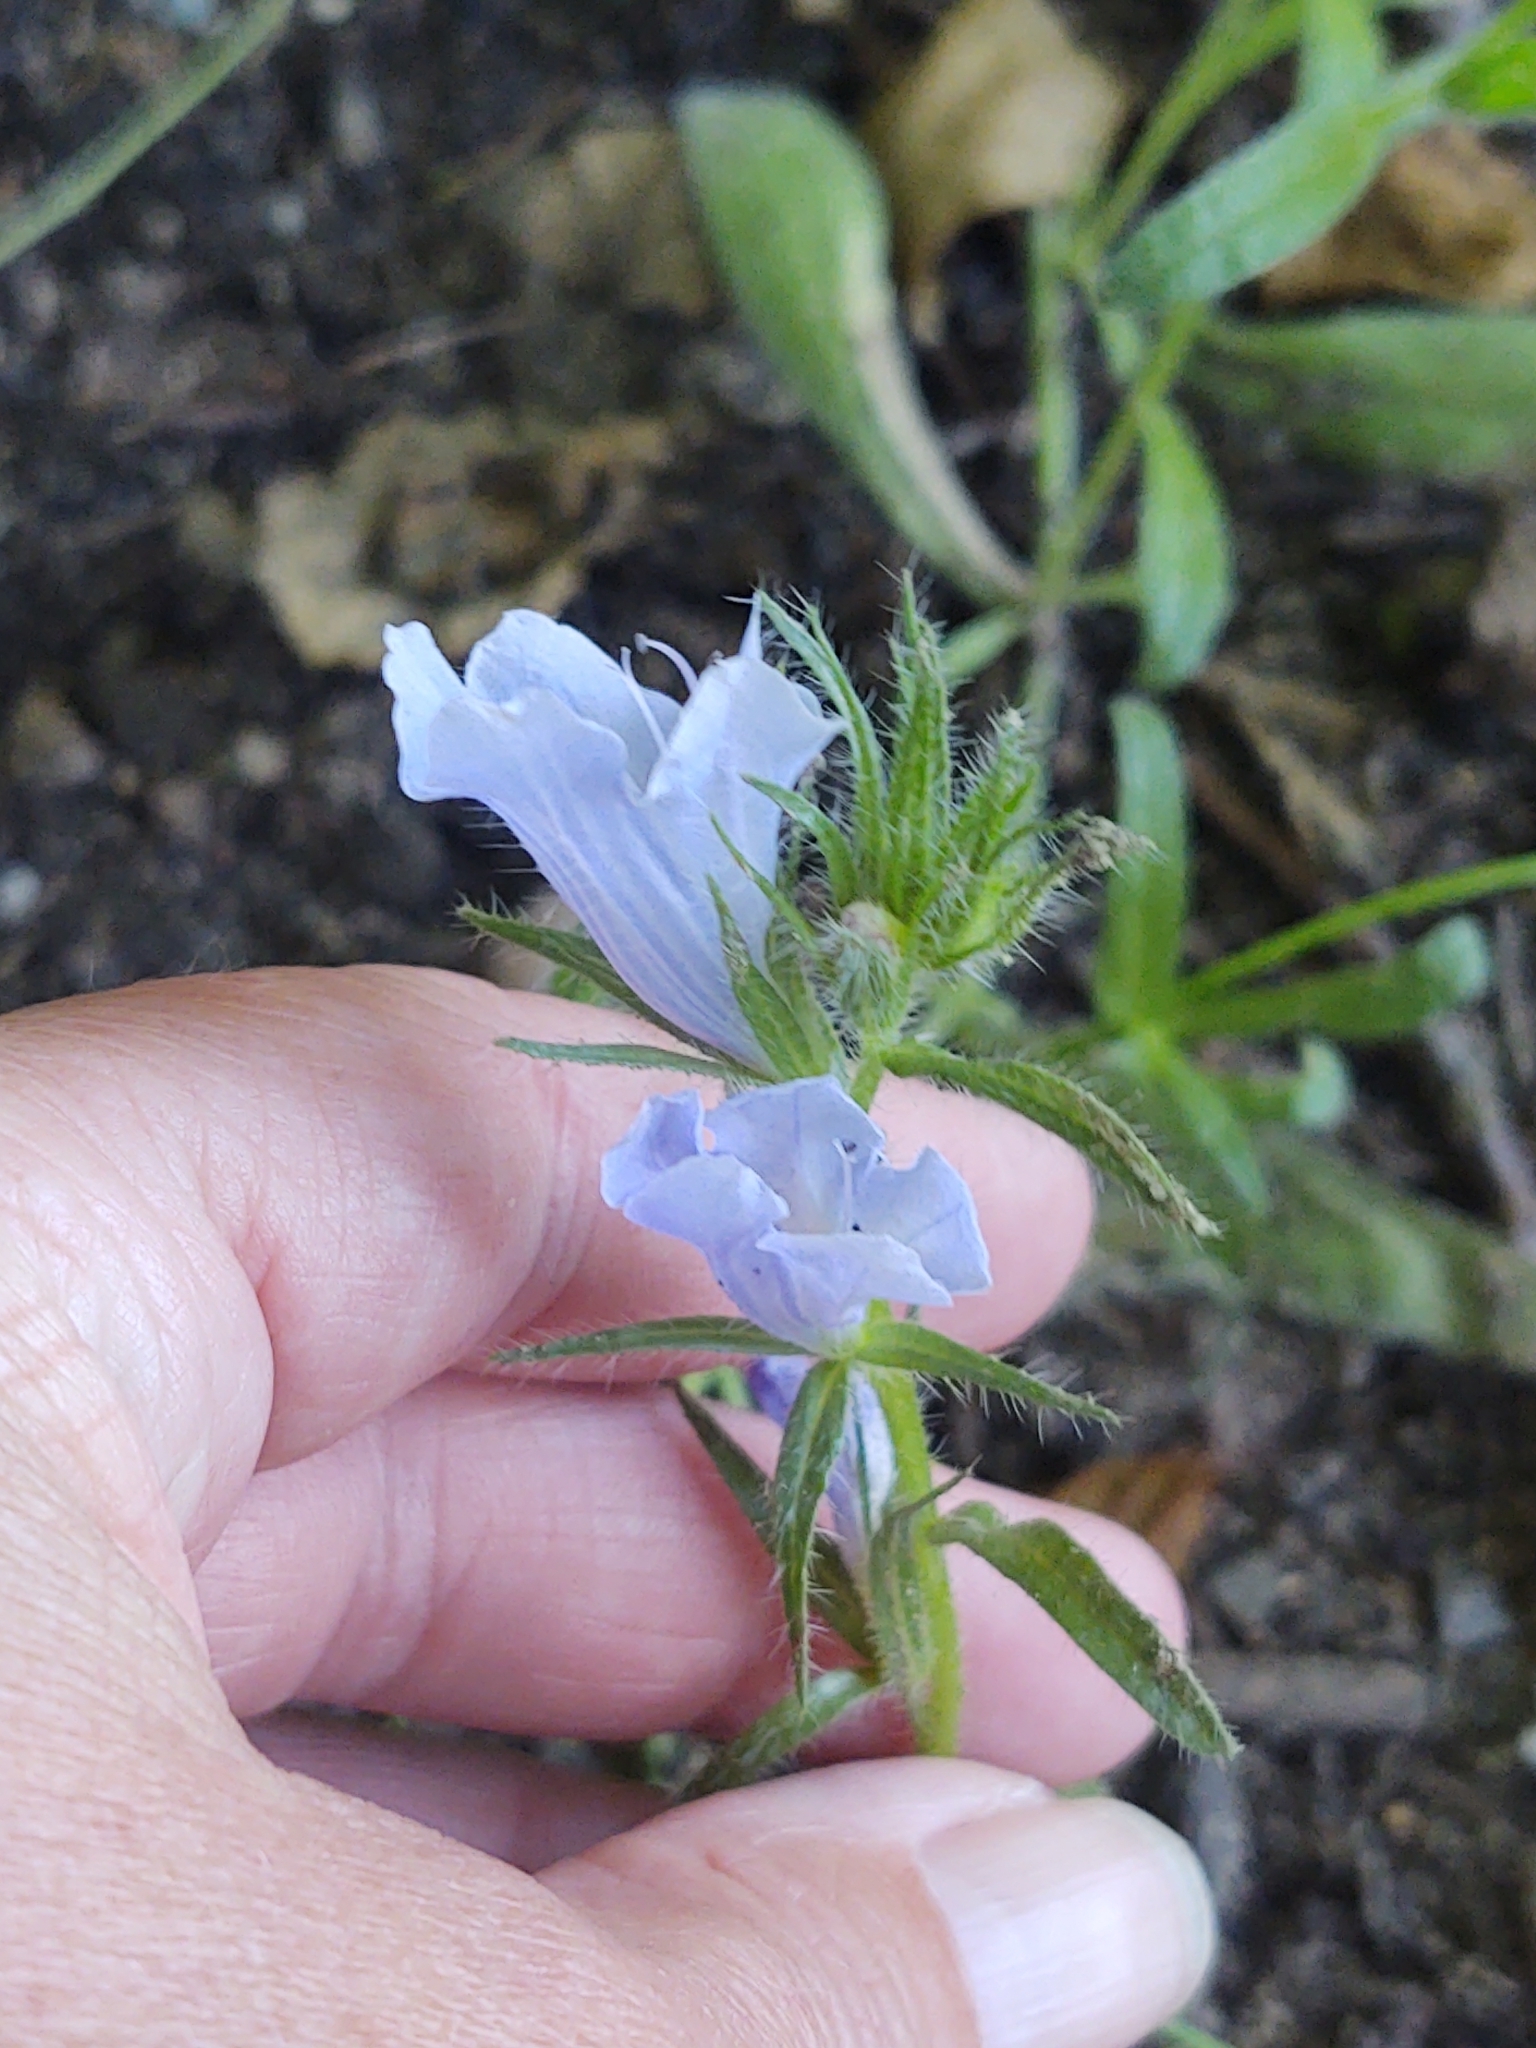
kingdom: Plantae
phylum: Tracheophyta
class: Magnoliopsida
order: Boraginales
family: Boraginaceae
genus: Echium
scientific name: Echium plantagineum
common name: Purple viper's-bugloss
